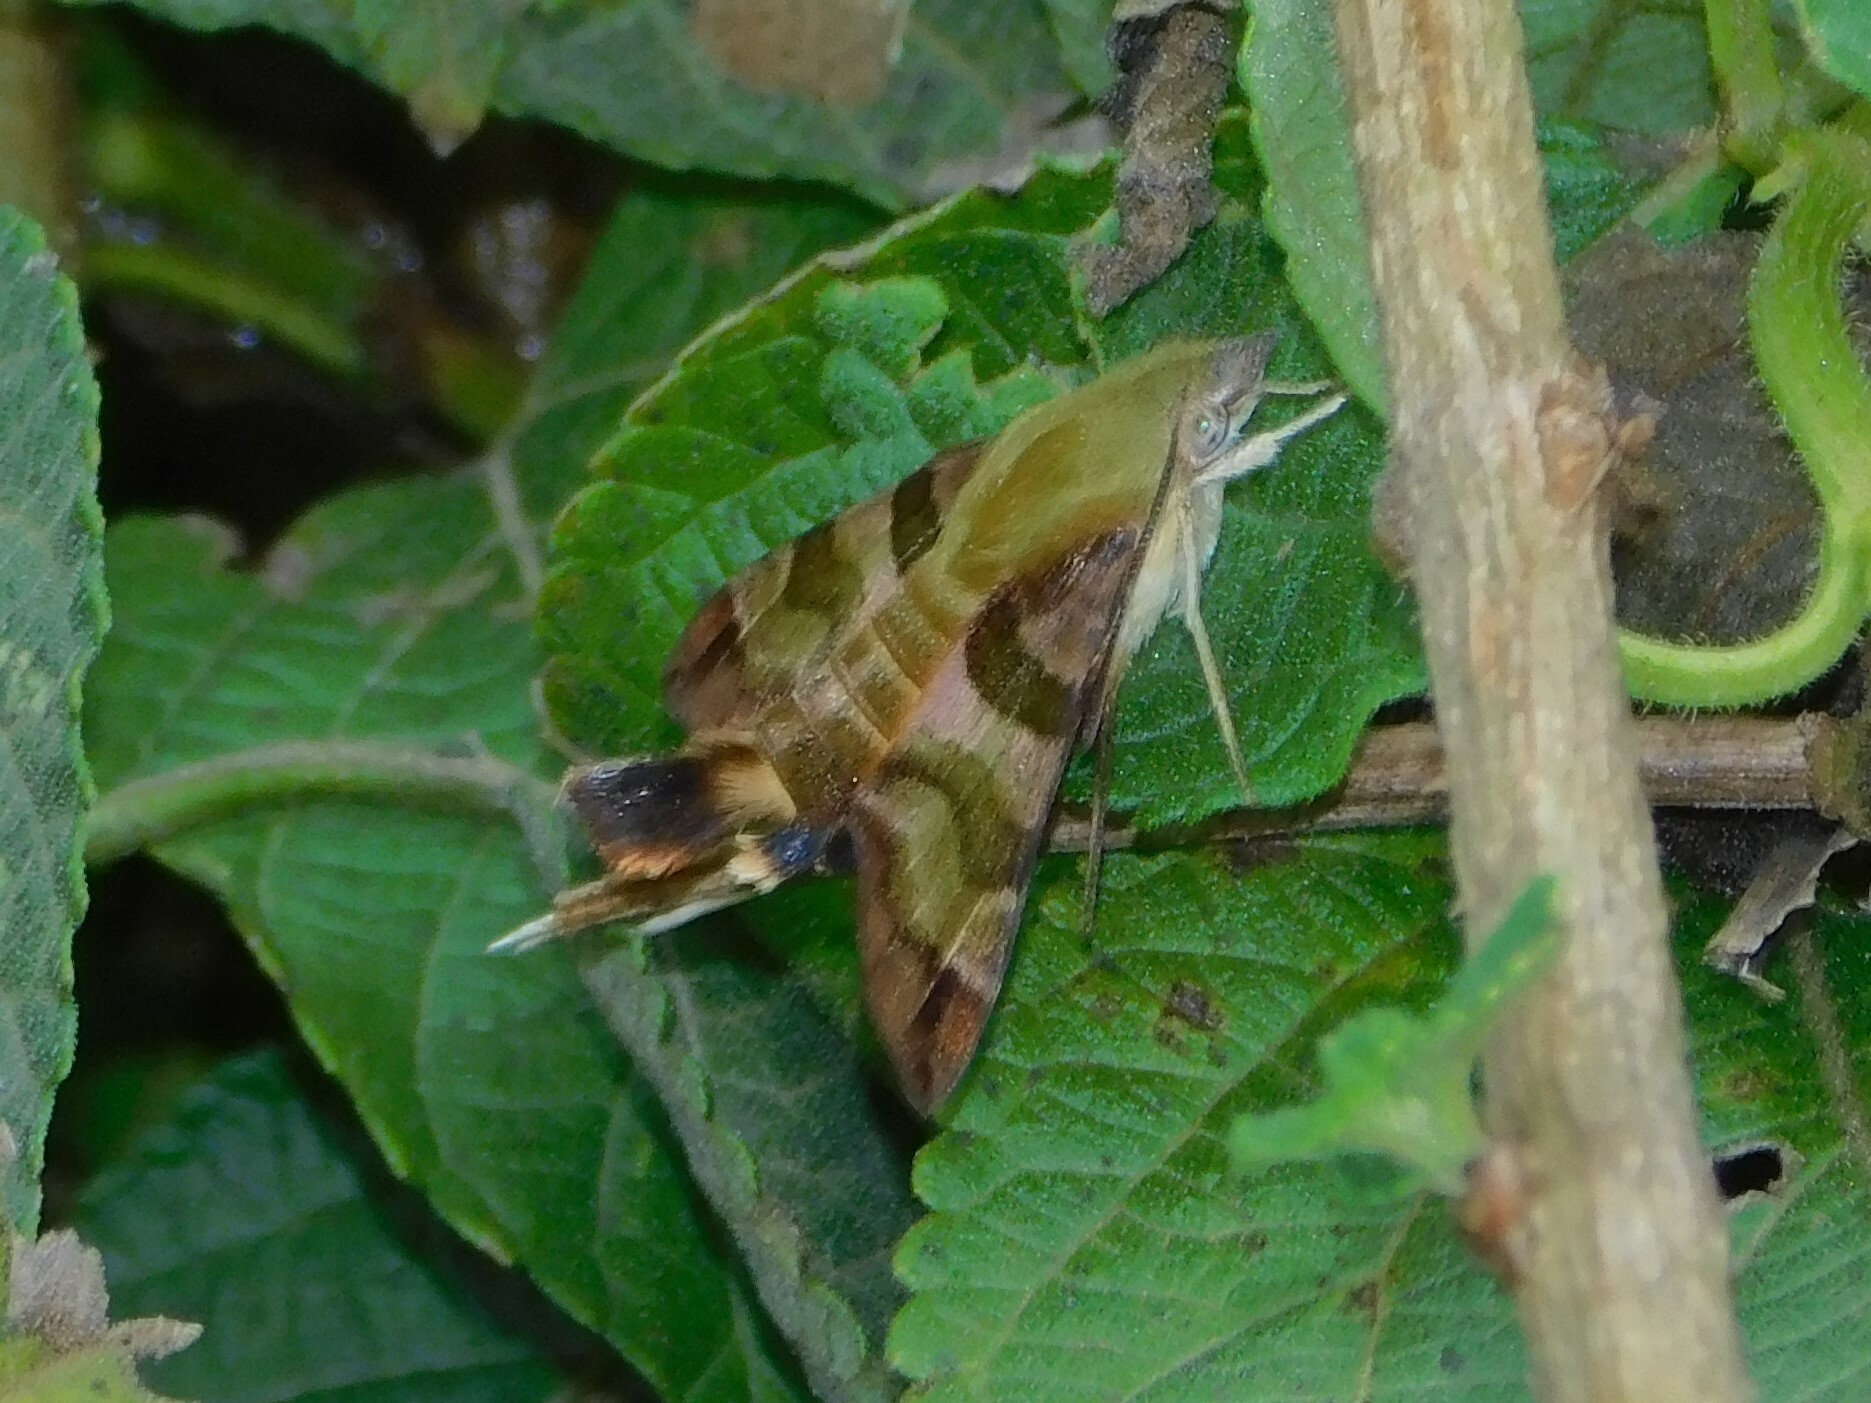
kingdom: Animalia
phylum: Arthropoda
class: Insecta
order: Lepidoptera
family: Sphingidae
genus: Macroglossum
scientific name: Macroglossum trochilus
